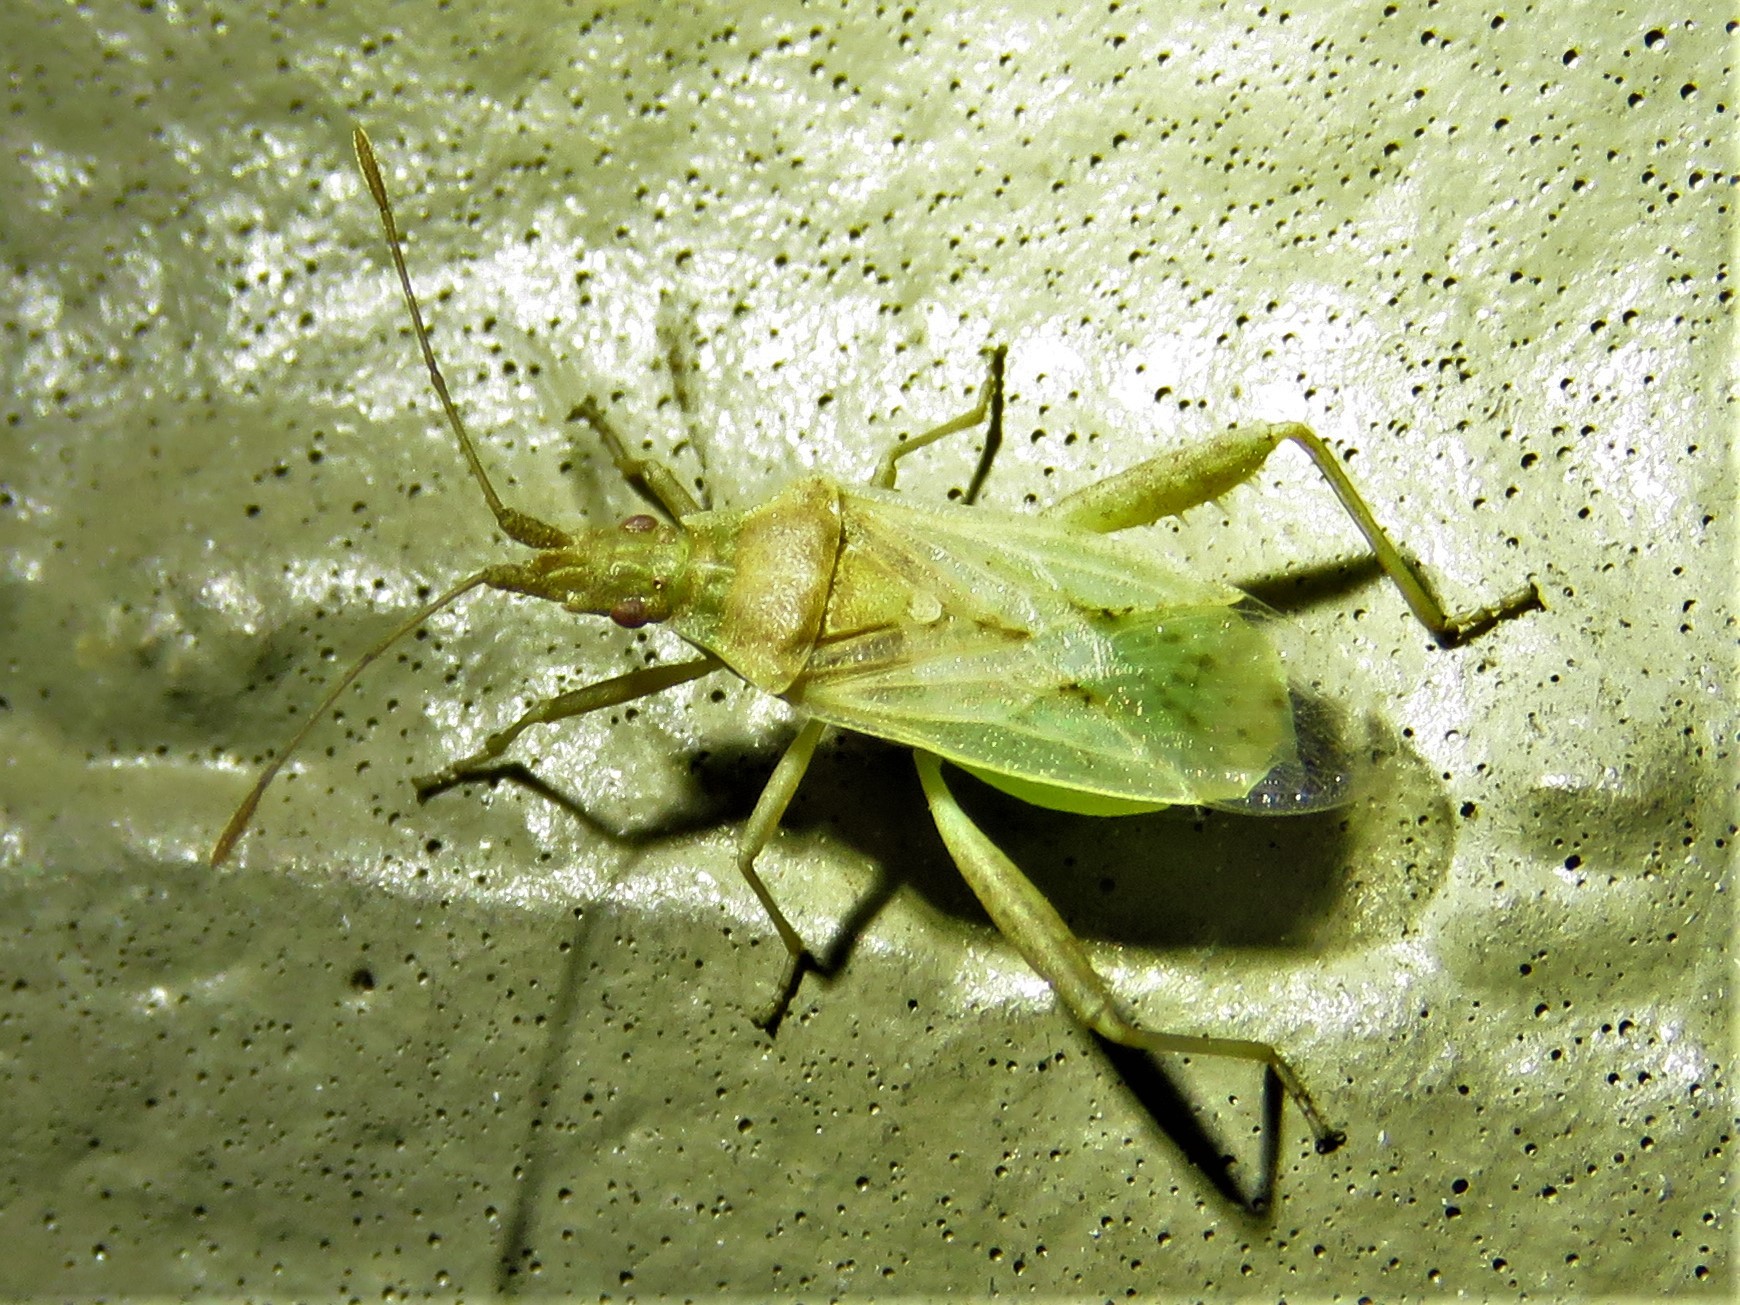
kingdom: Animalia
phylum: Arthropoda
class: Insecta
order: Hemiptera
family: Rhopalidae
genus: Harmostes
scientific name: Harmostes reflexulus
